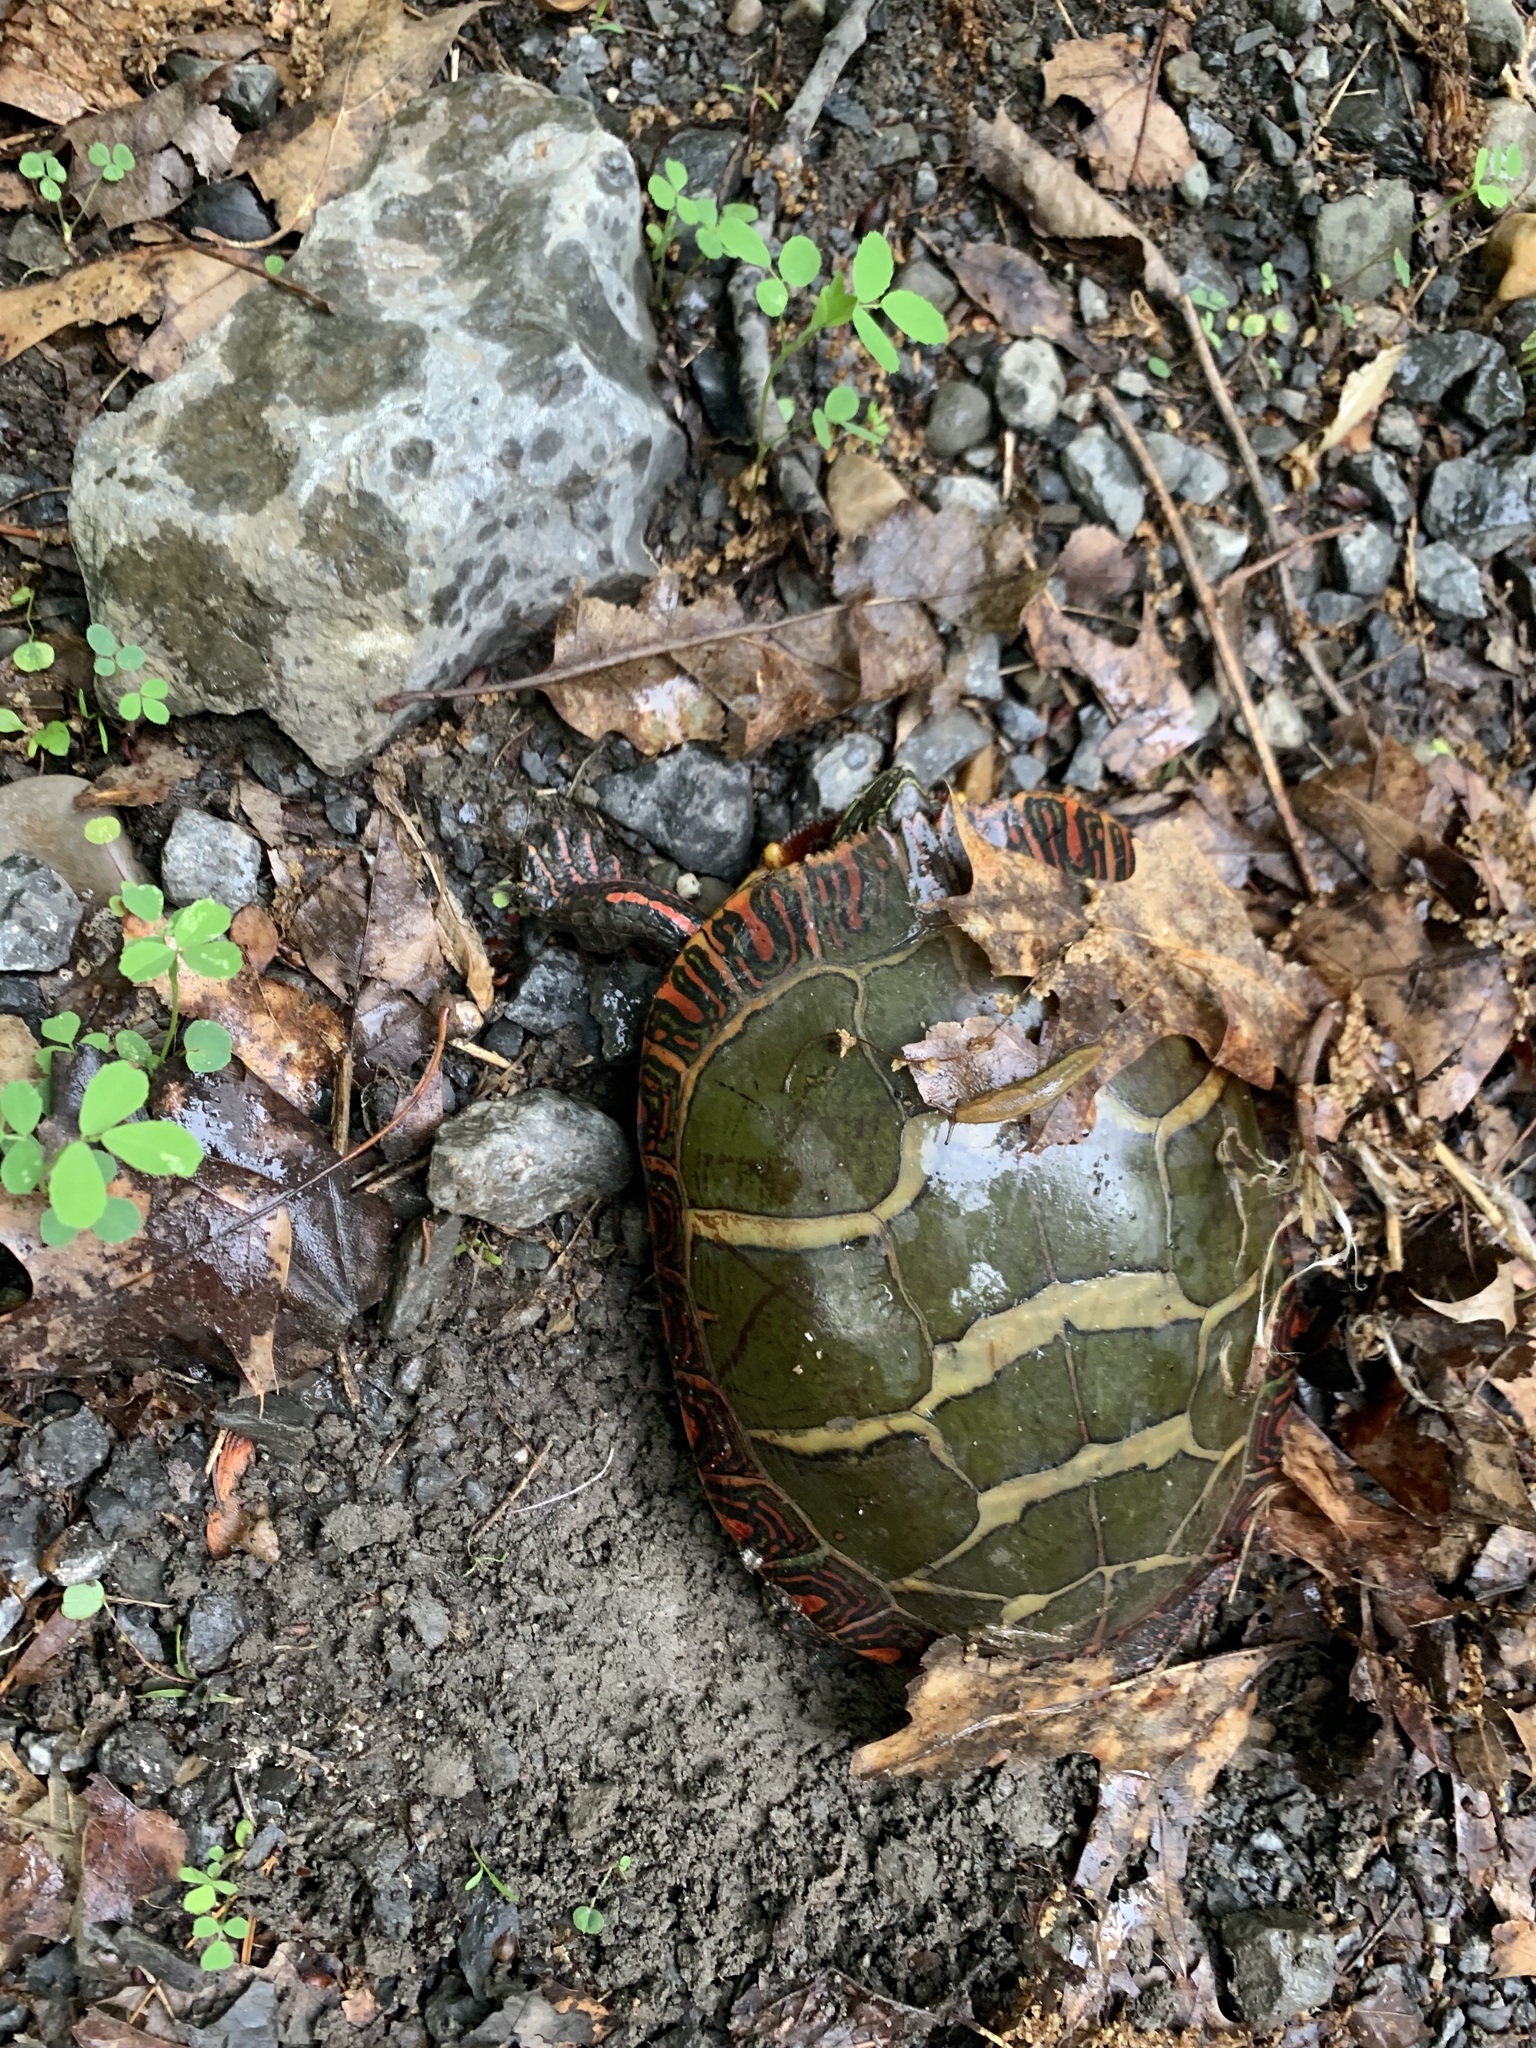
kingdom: Animalia
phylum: Chordata
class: Testudines
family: Emydidae
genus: Chrysemys
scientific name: Chrysemys picta
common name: Painted turtle
